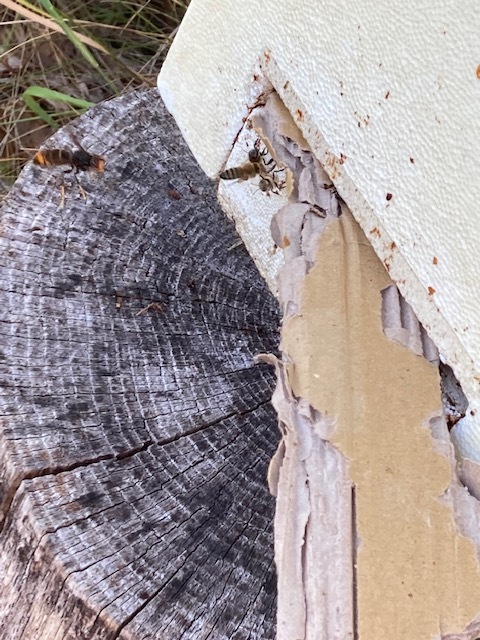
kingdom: Animalia
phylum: Arthropoda
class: Insecta
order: Hymenoptera
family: Vespidae
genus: Vespa
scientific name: Vespa velutina
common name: Asian hornet
